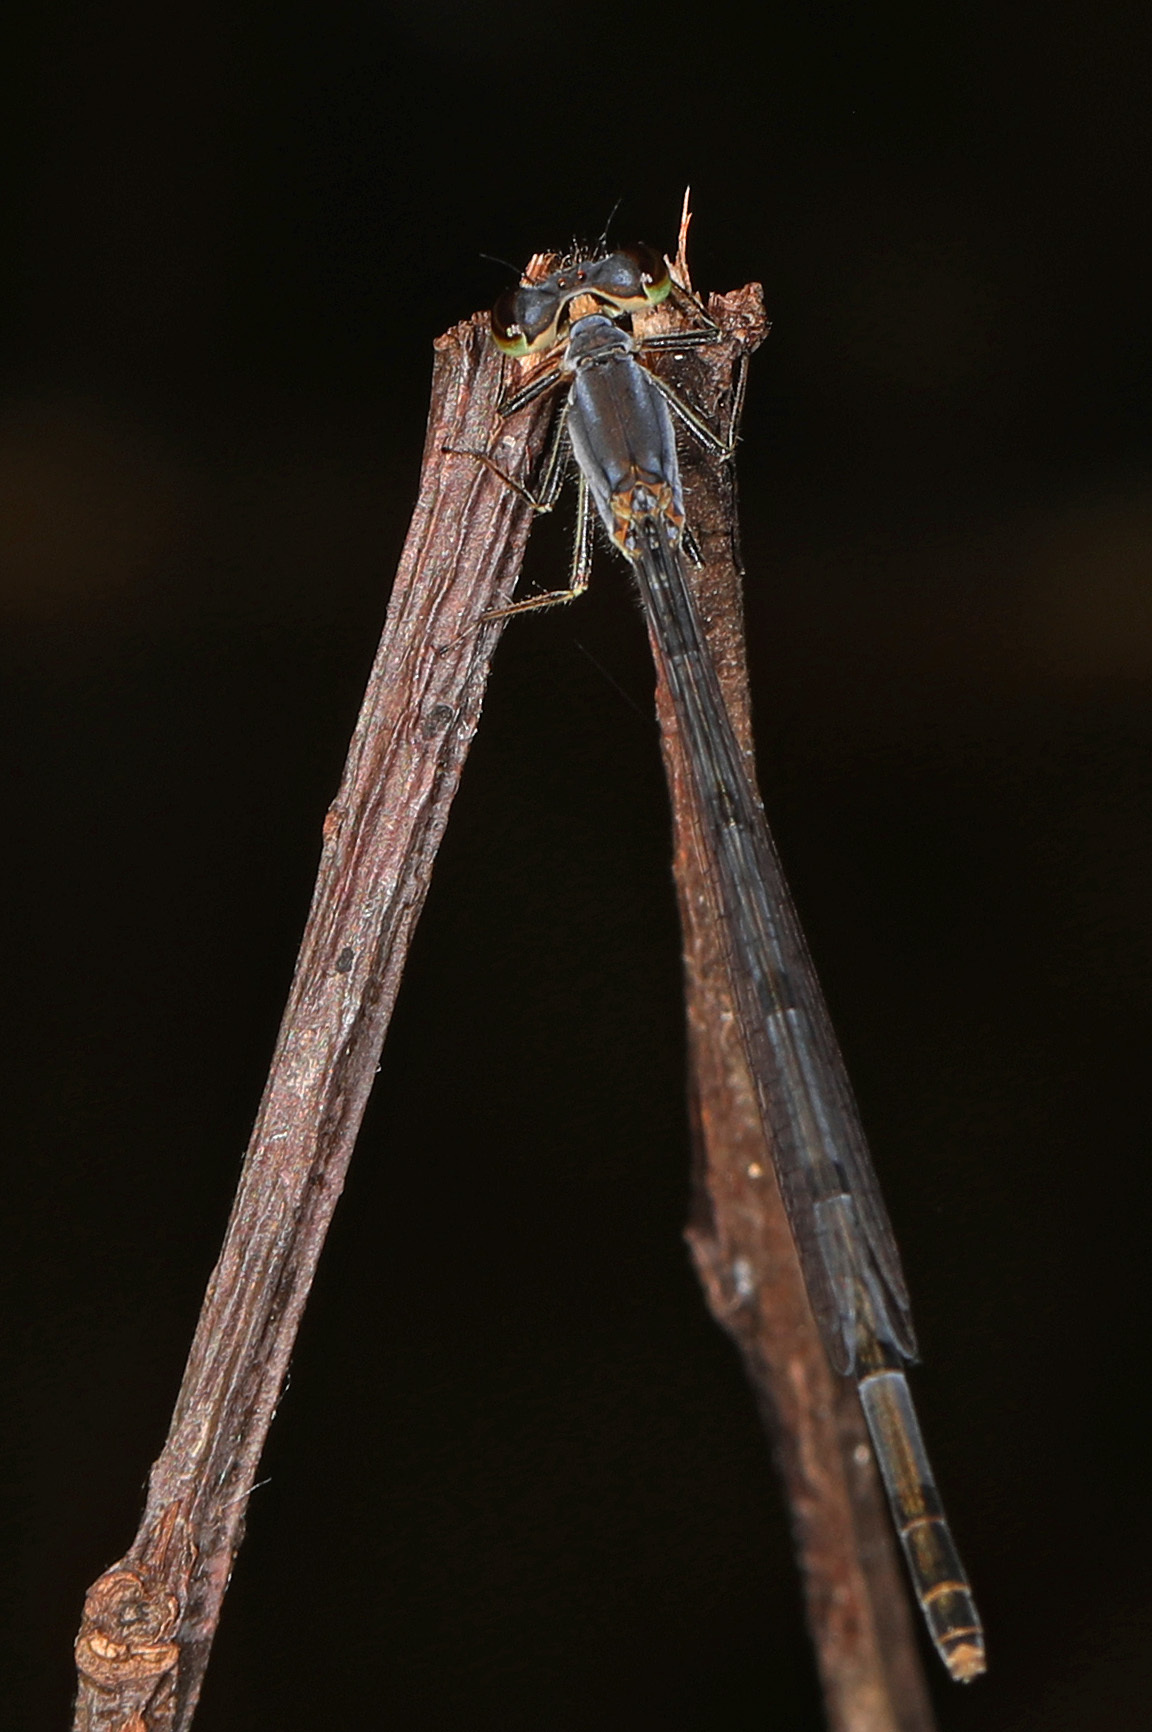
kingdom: Animalia
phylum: Arthropoda
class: Insecta
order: Odonata
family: Coenagrionidae
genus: Ischnura
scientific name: Ischnura posita
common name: Fragile forktail
